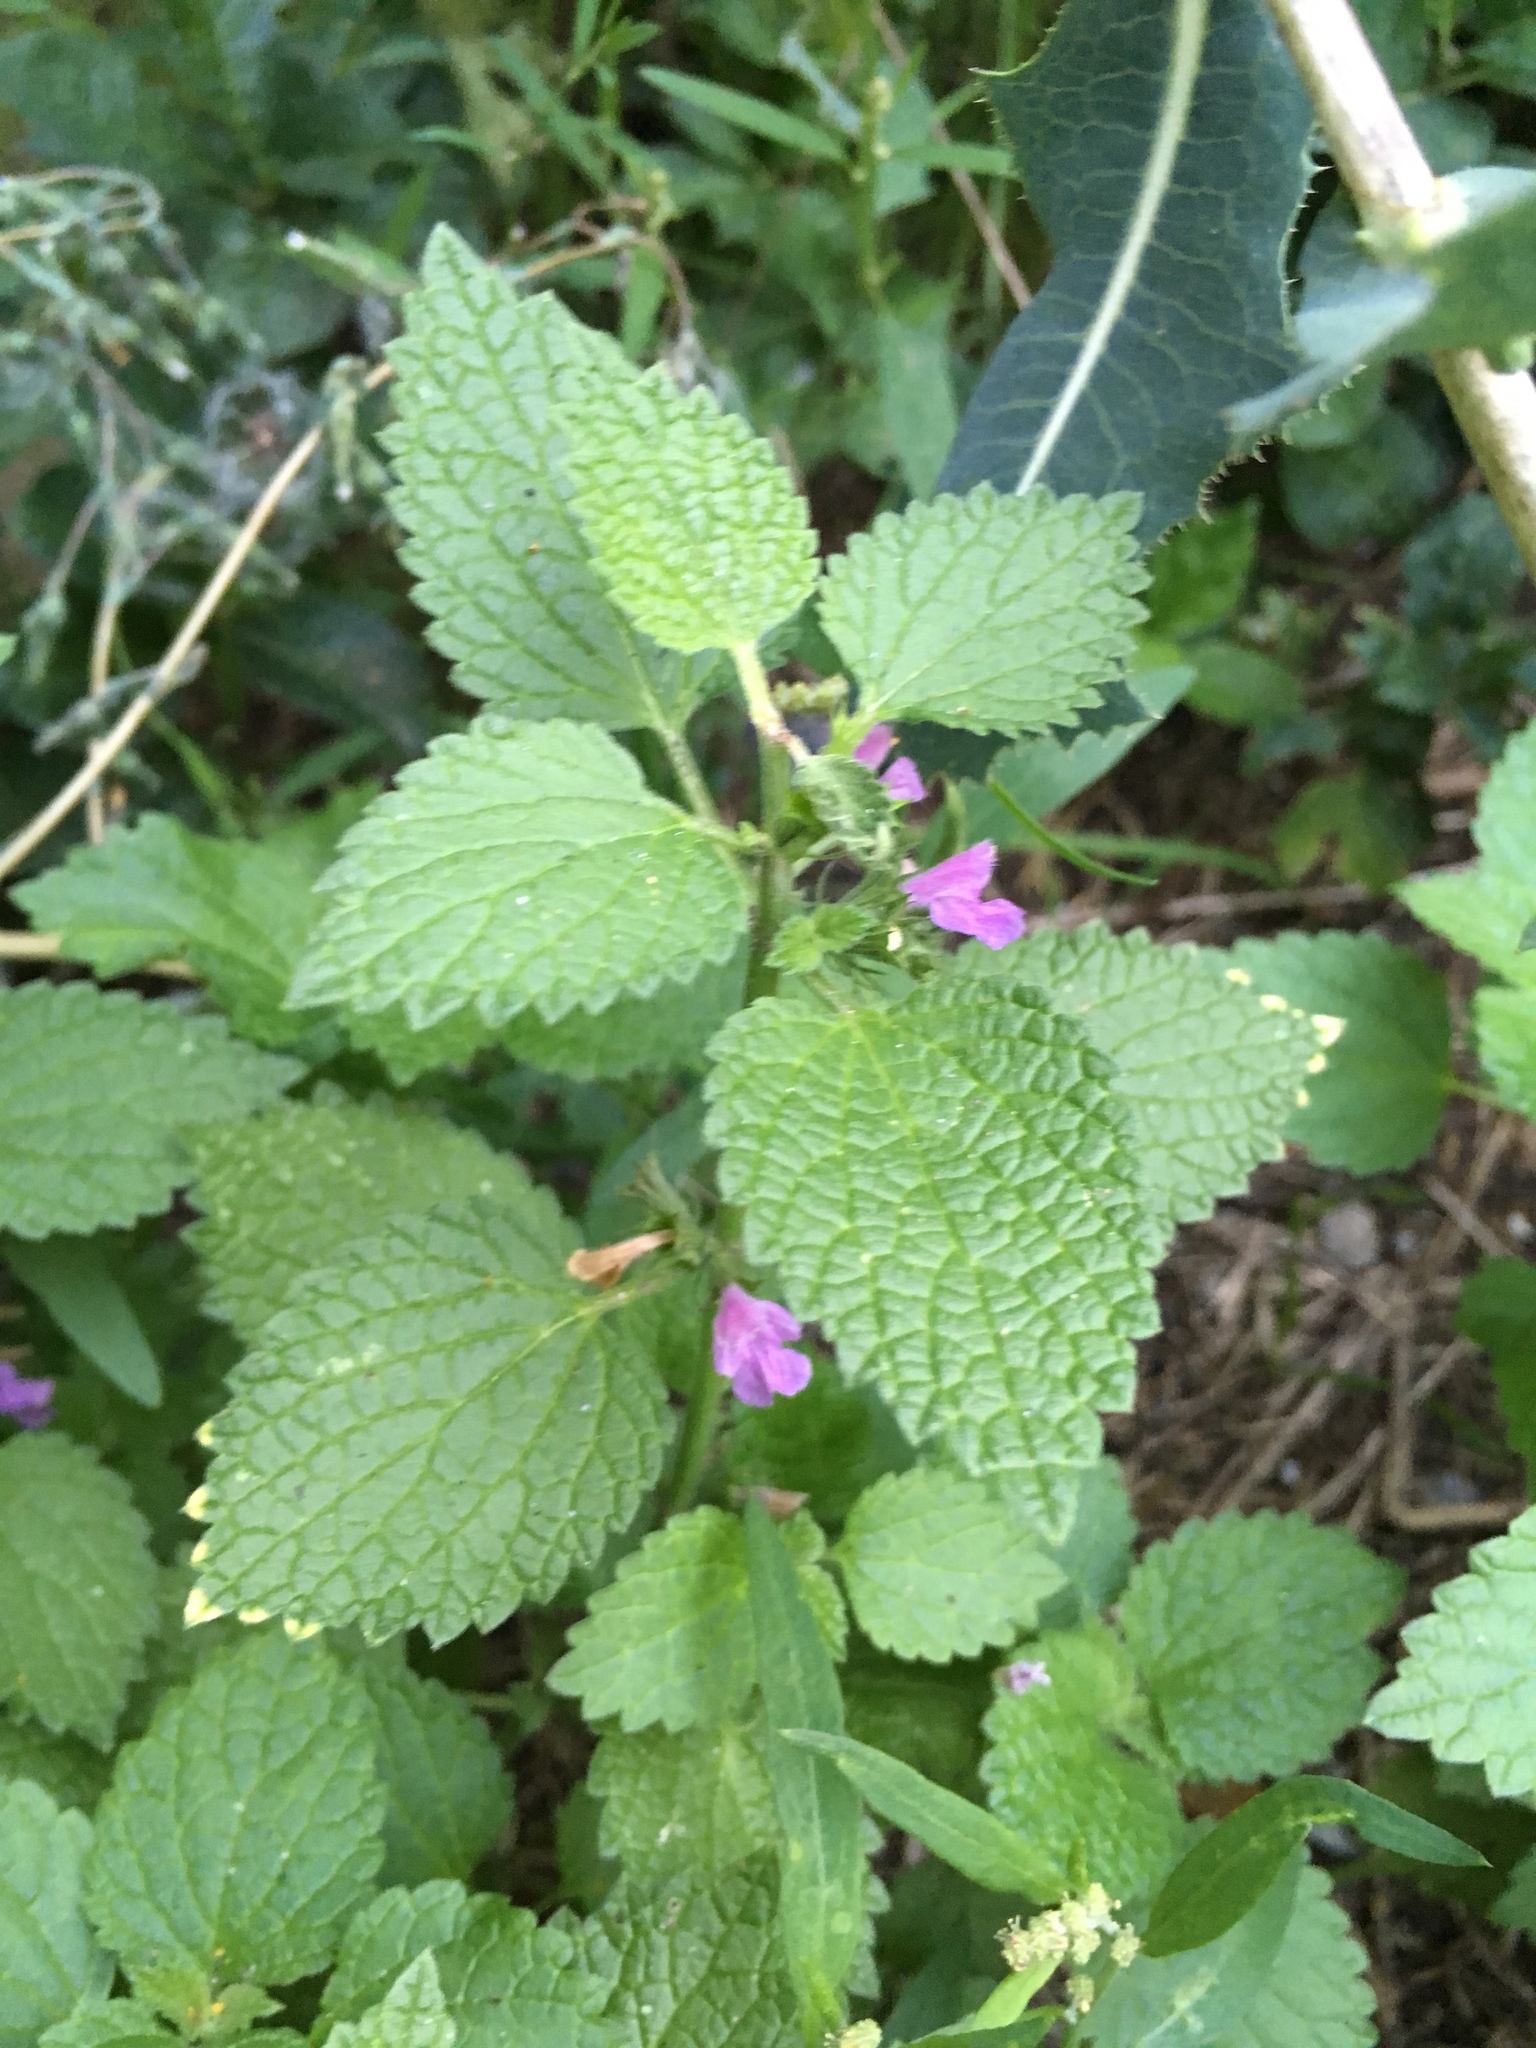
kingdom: Plantae
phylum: Tracheophyta
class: Magnoliopsida
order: Lamiales
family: Lamiaceae
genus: Ballota
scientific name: Ballota nigra
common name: Black horehound
